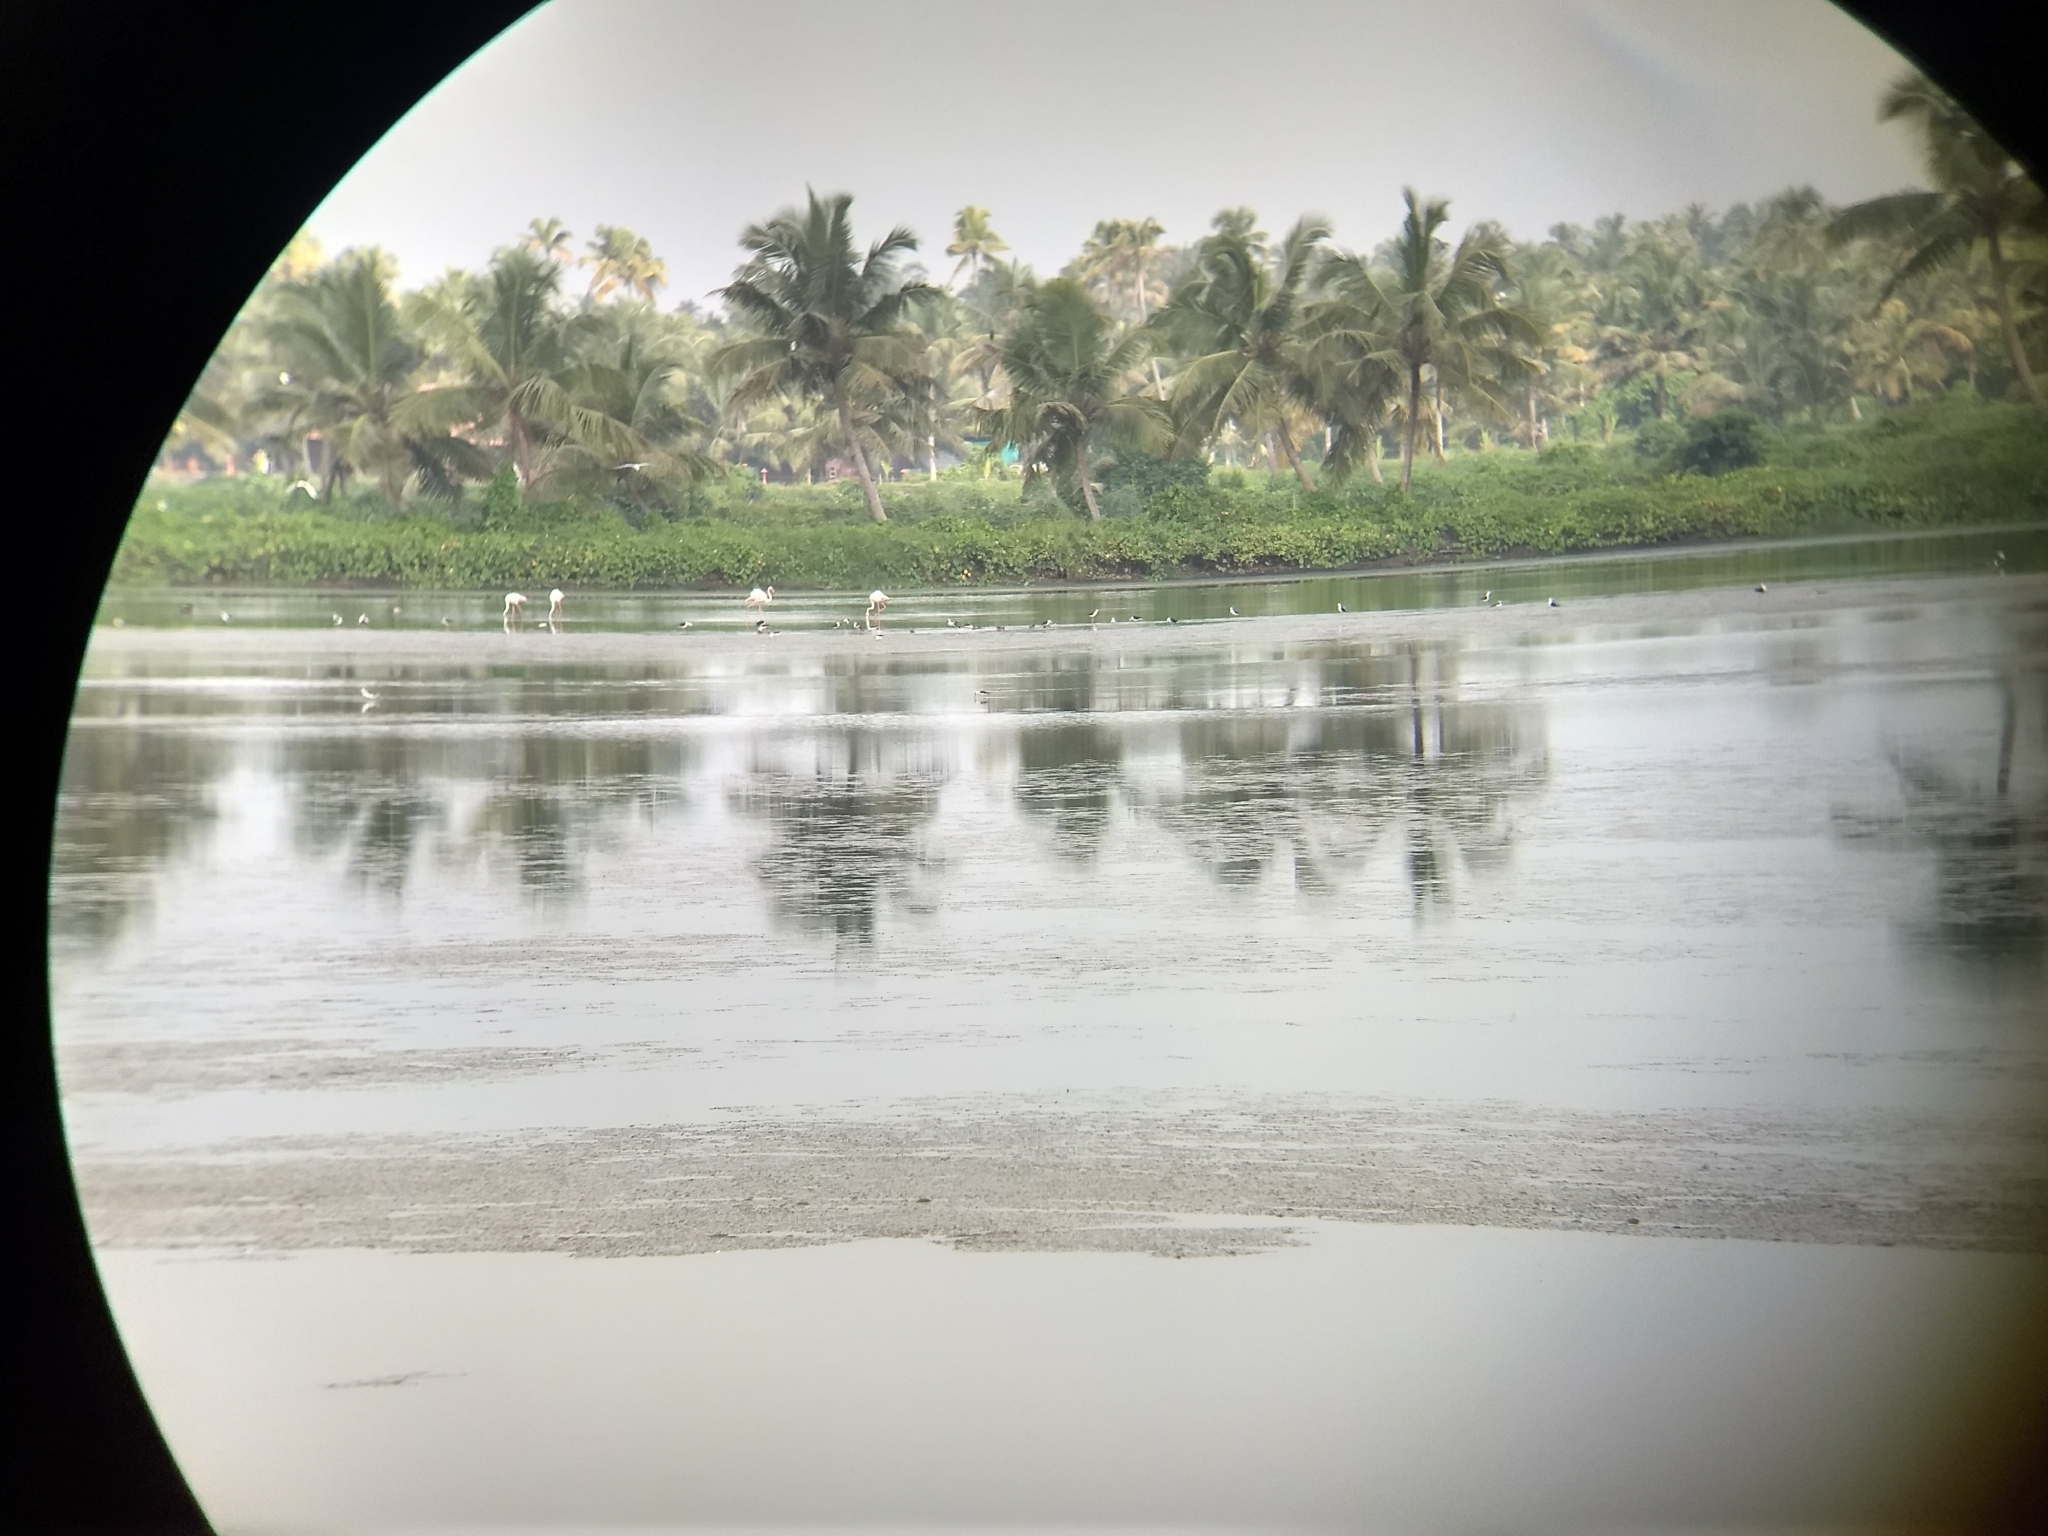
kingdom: Animalia
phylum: Chordata
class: Aves
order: Phoenicopteriformes
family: Phoenicopteridae
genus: Phoenicopterus
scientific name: Phoenicopterus roseus
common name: Greater flamingo
